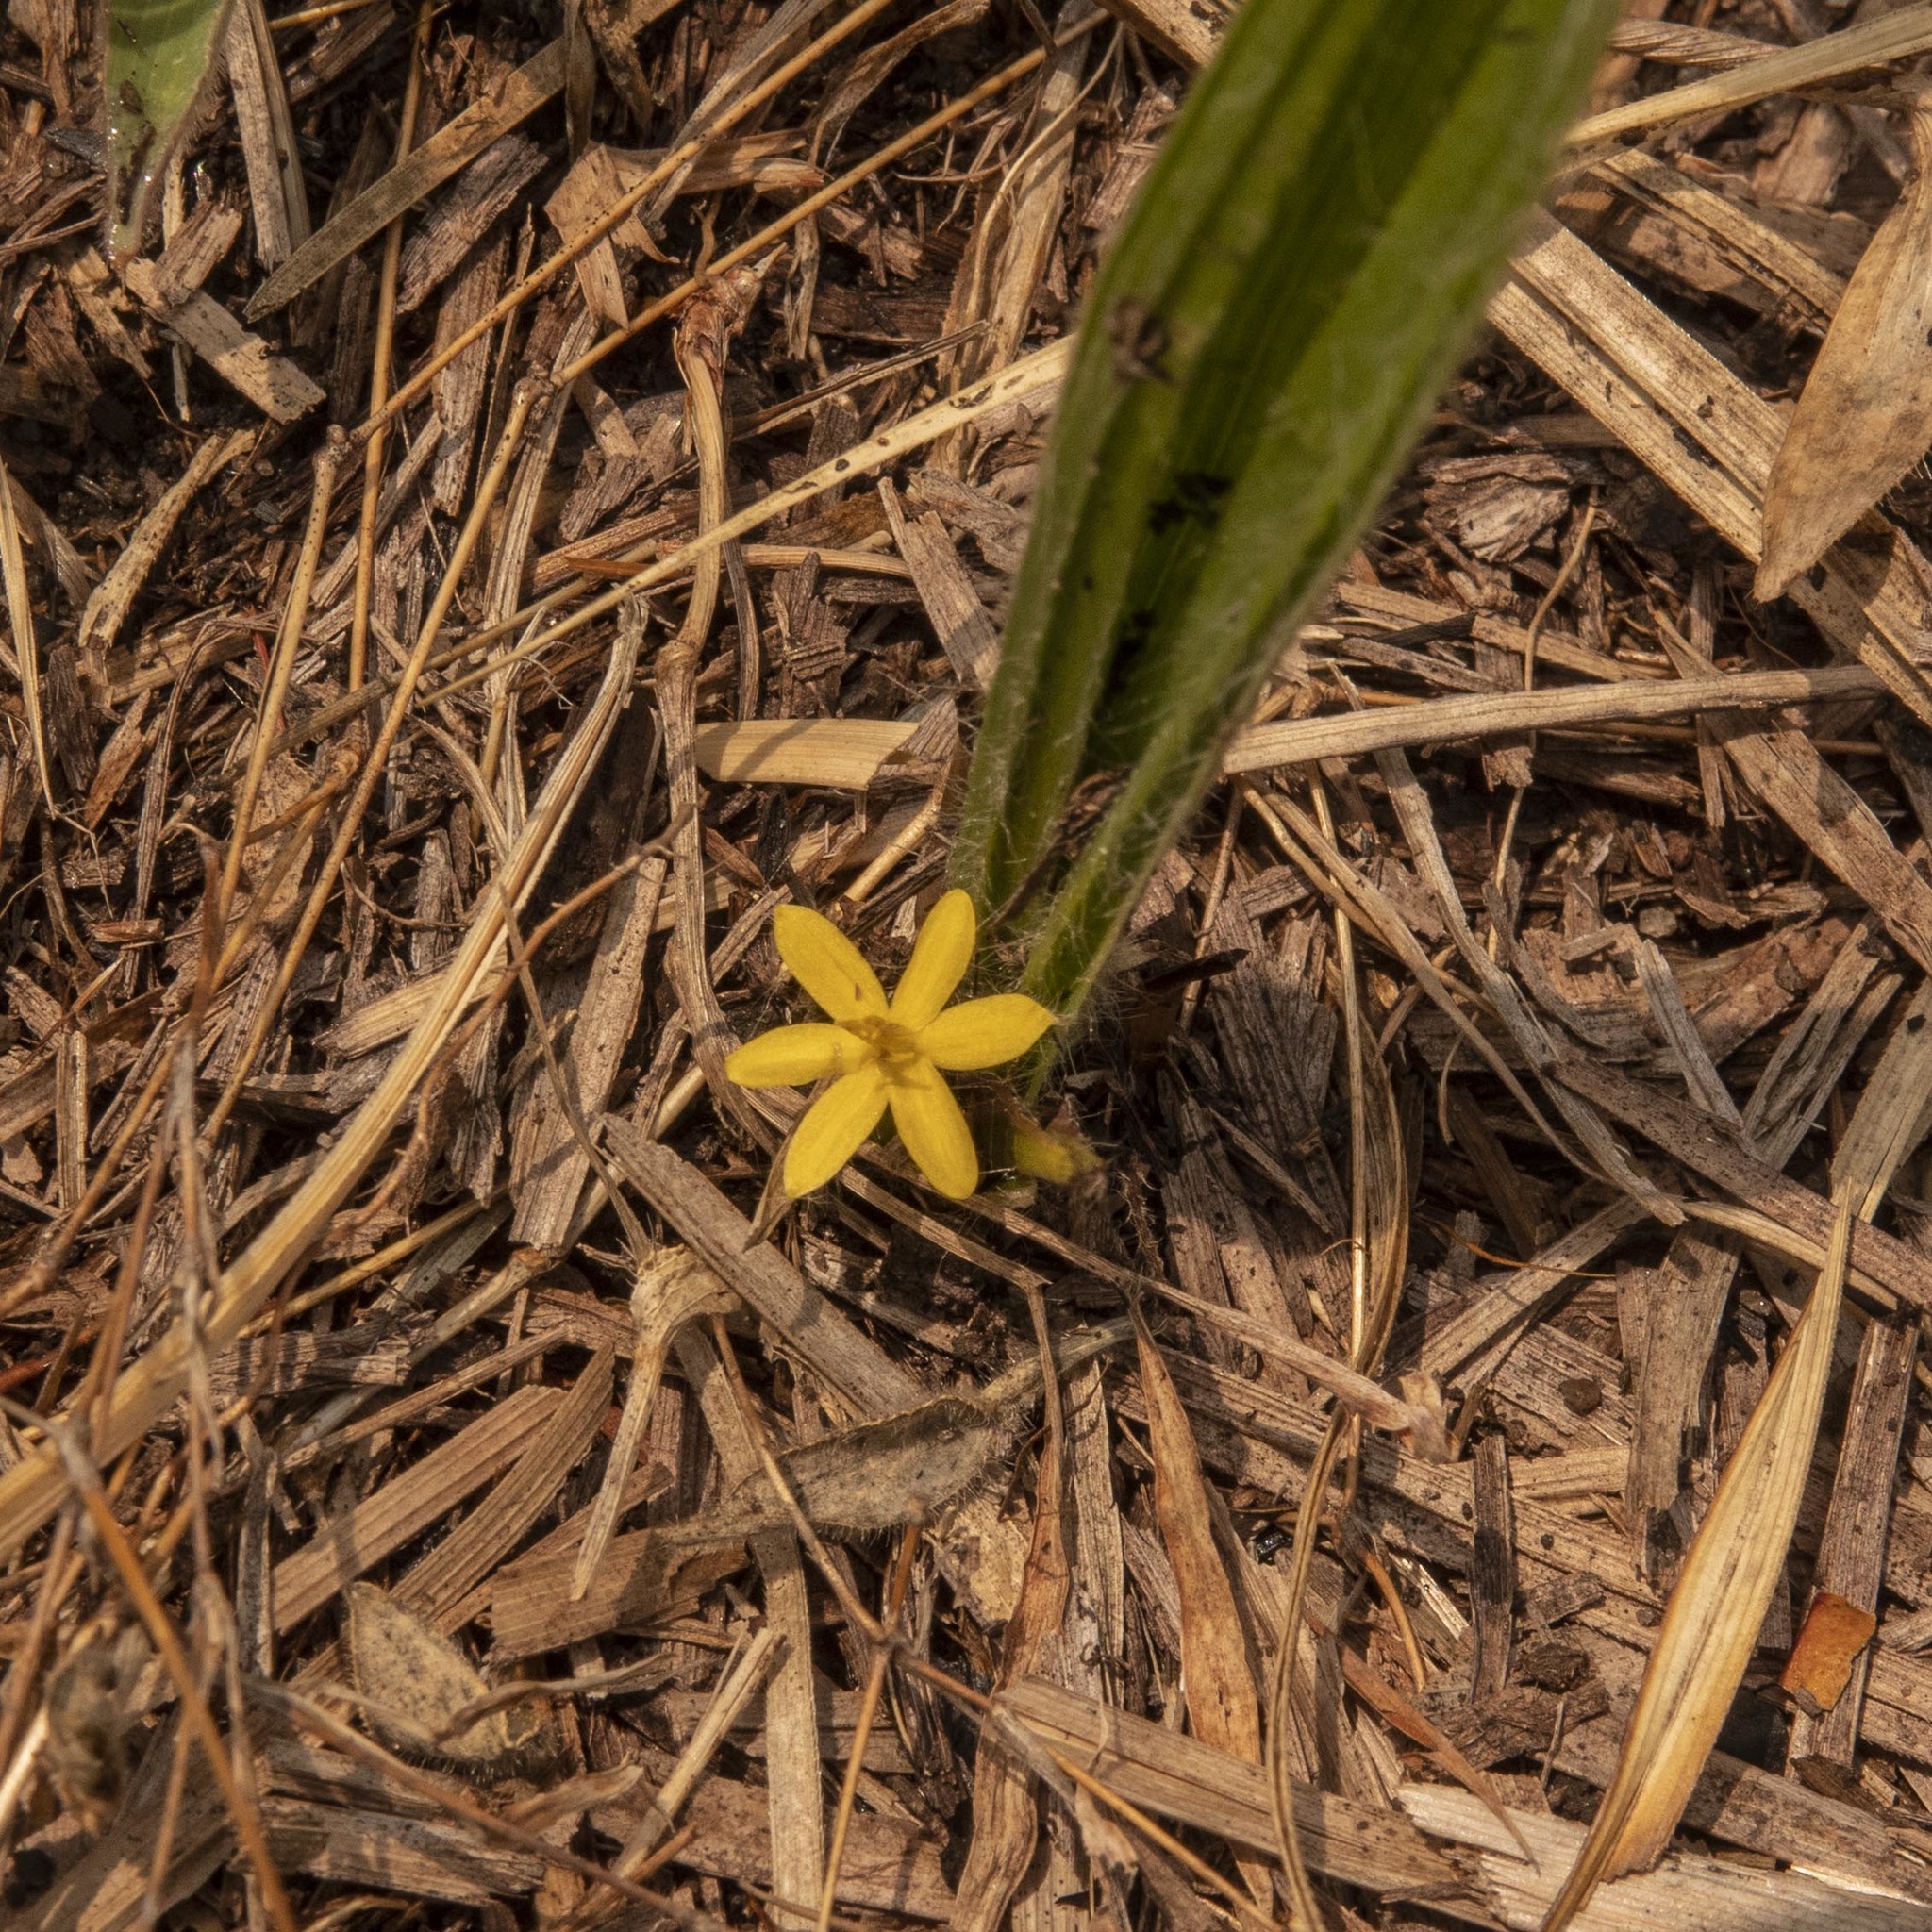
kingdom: Plantae
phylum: Tracheophyta
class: Liliopsida
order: Asparagales
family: Hypoxidaceae
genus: Curculigo
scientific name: Curculigo orchioides
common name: Golden eye-grass
